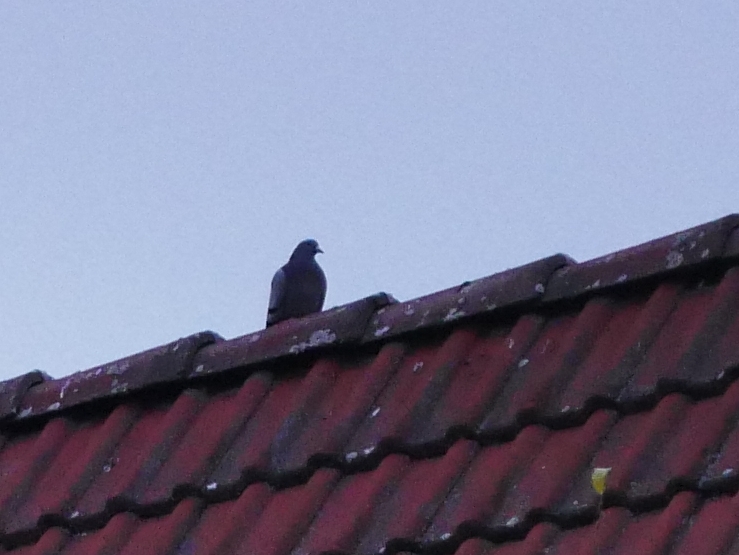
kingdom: Animalia
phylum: Chordata
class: Aves
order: Columbiformes
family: Columbidae
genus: Columba
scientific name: Columba livia
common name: Rock pigeon
